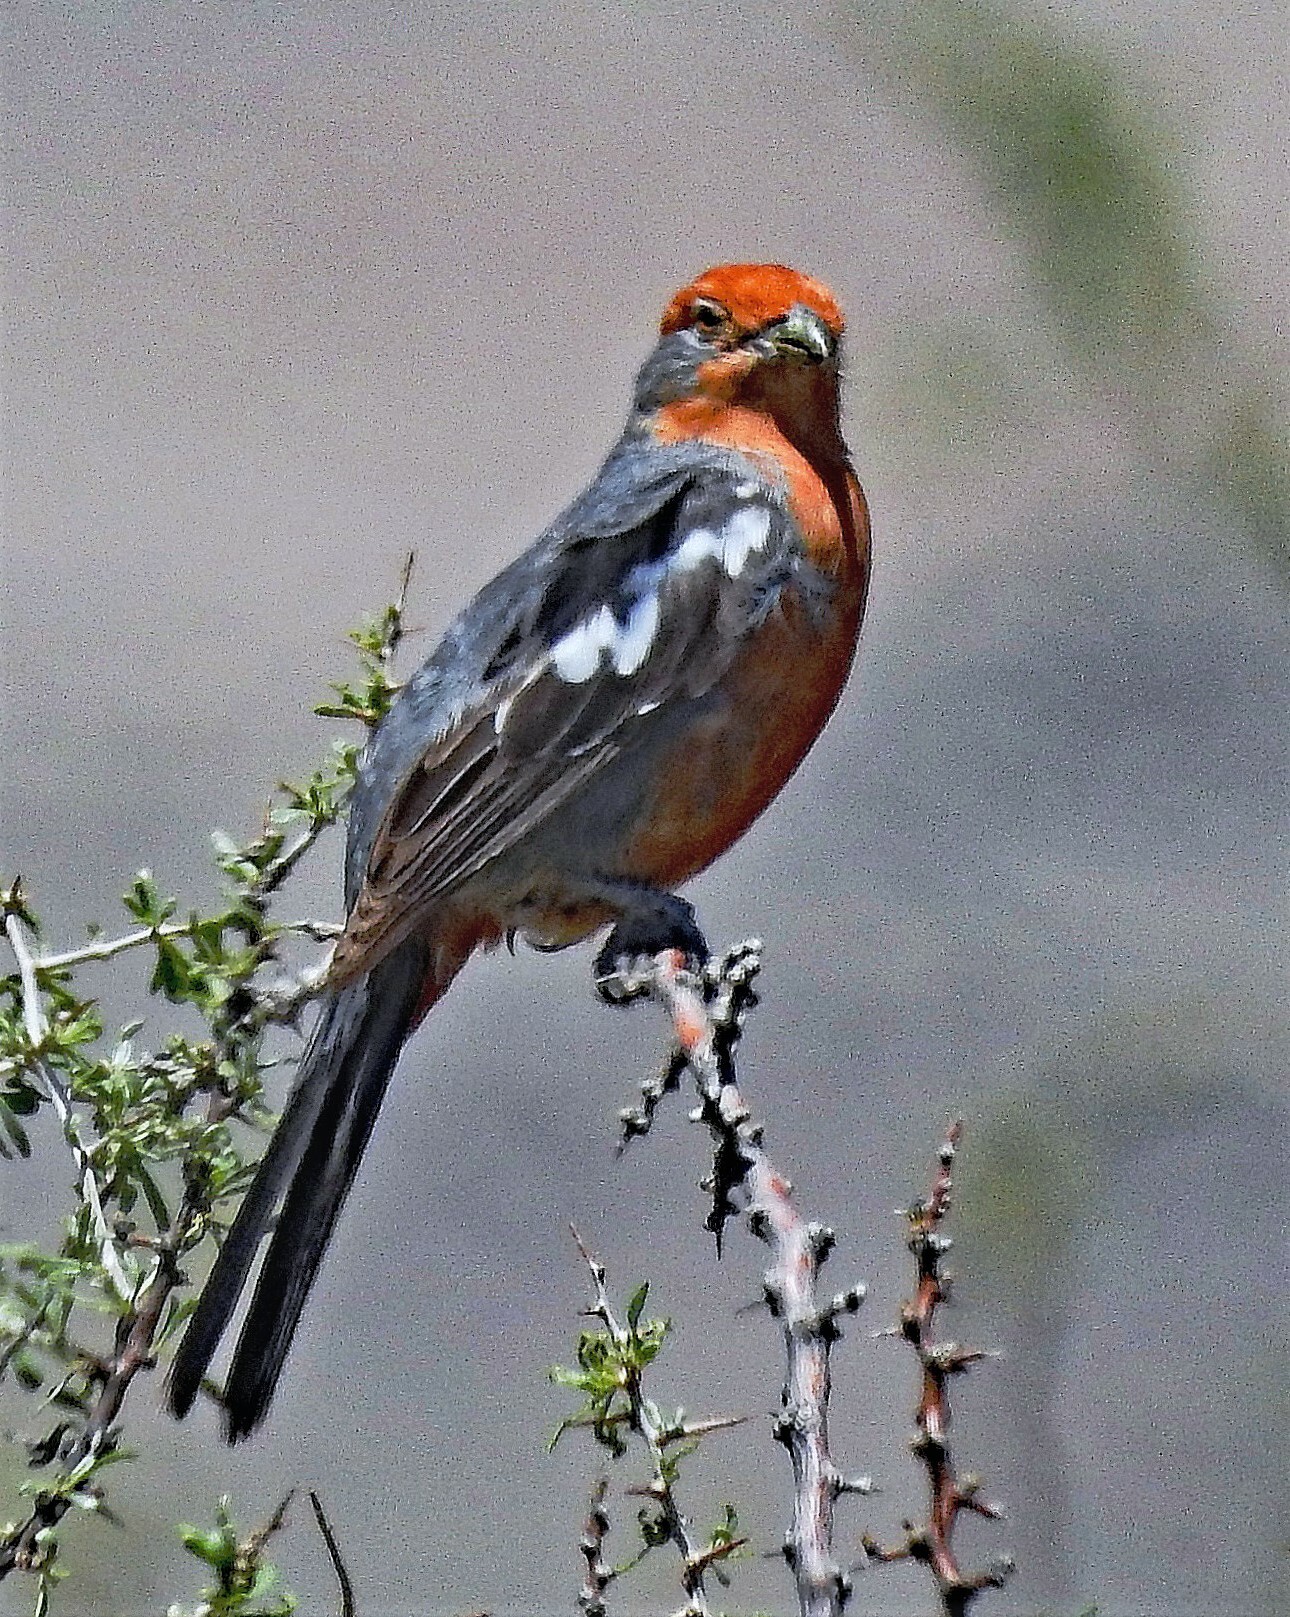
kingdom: Animalia
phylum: Chordata
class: Aves
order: Passeriformes
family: Cotingidae
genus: Phytotoma
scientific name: Phytotoma rutila
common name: White-tipped plantcutter
